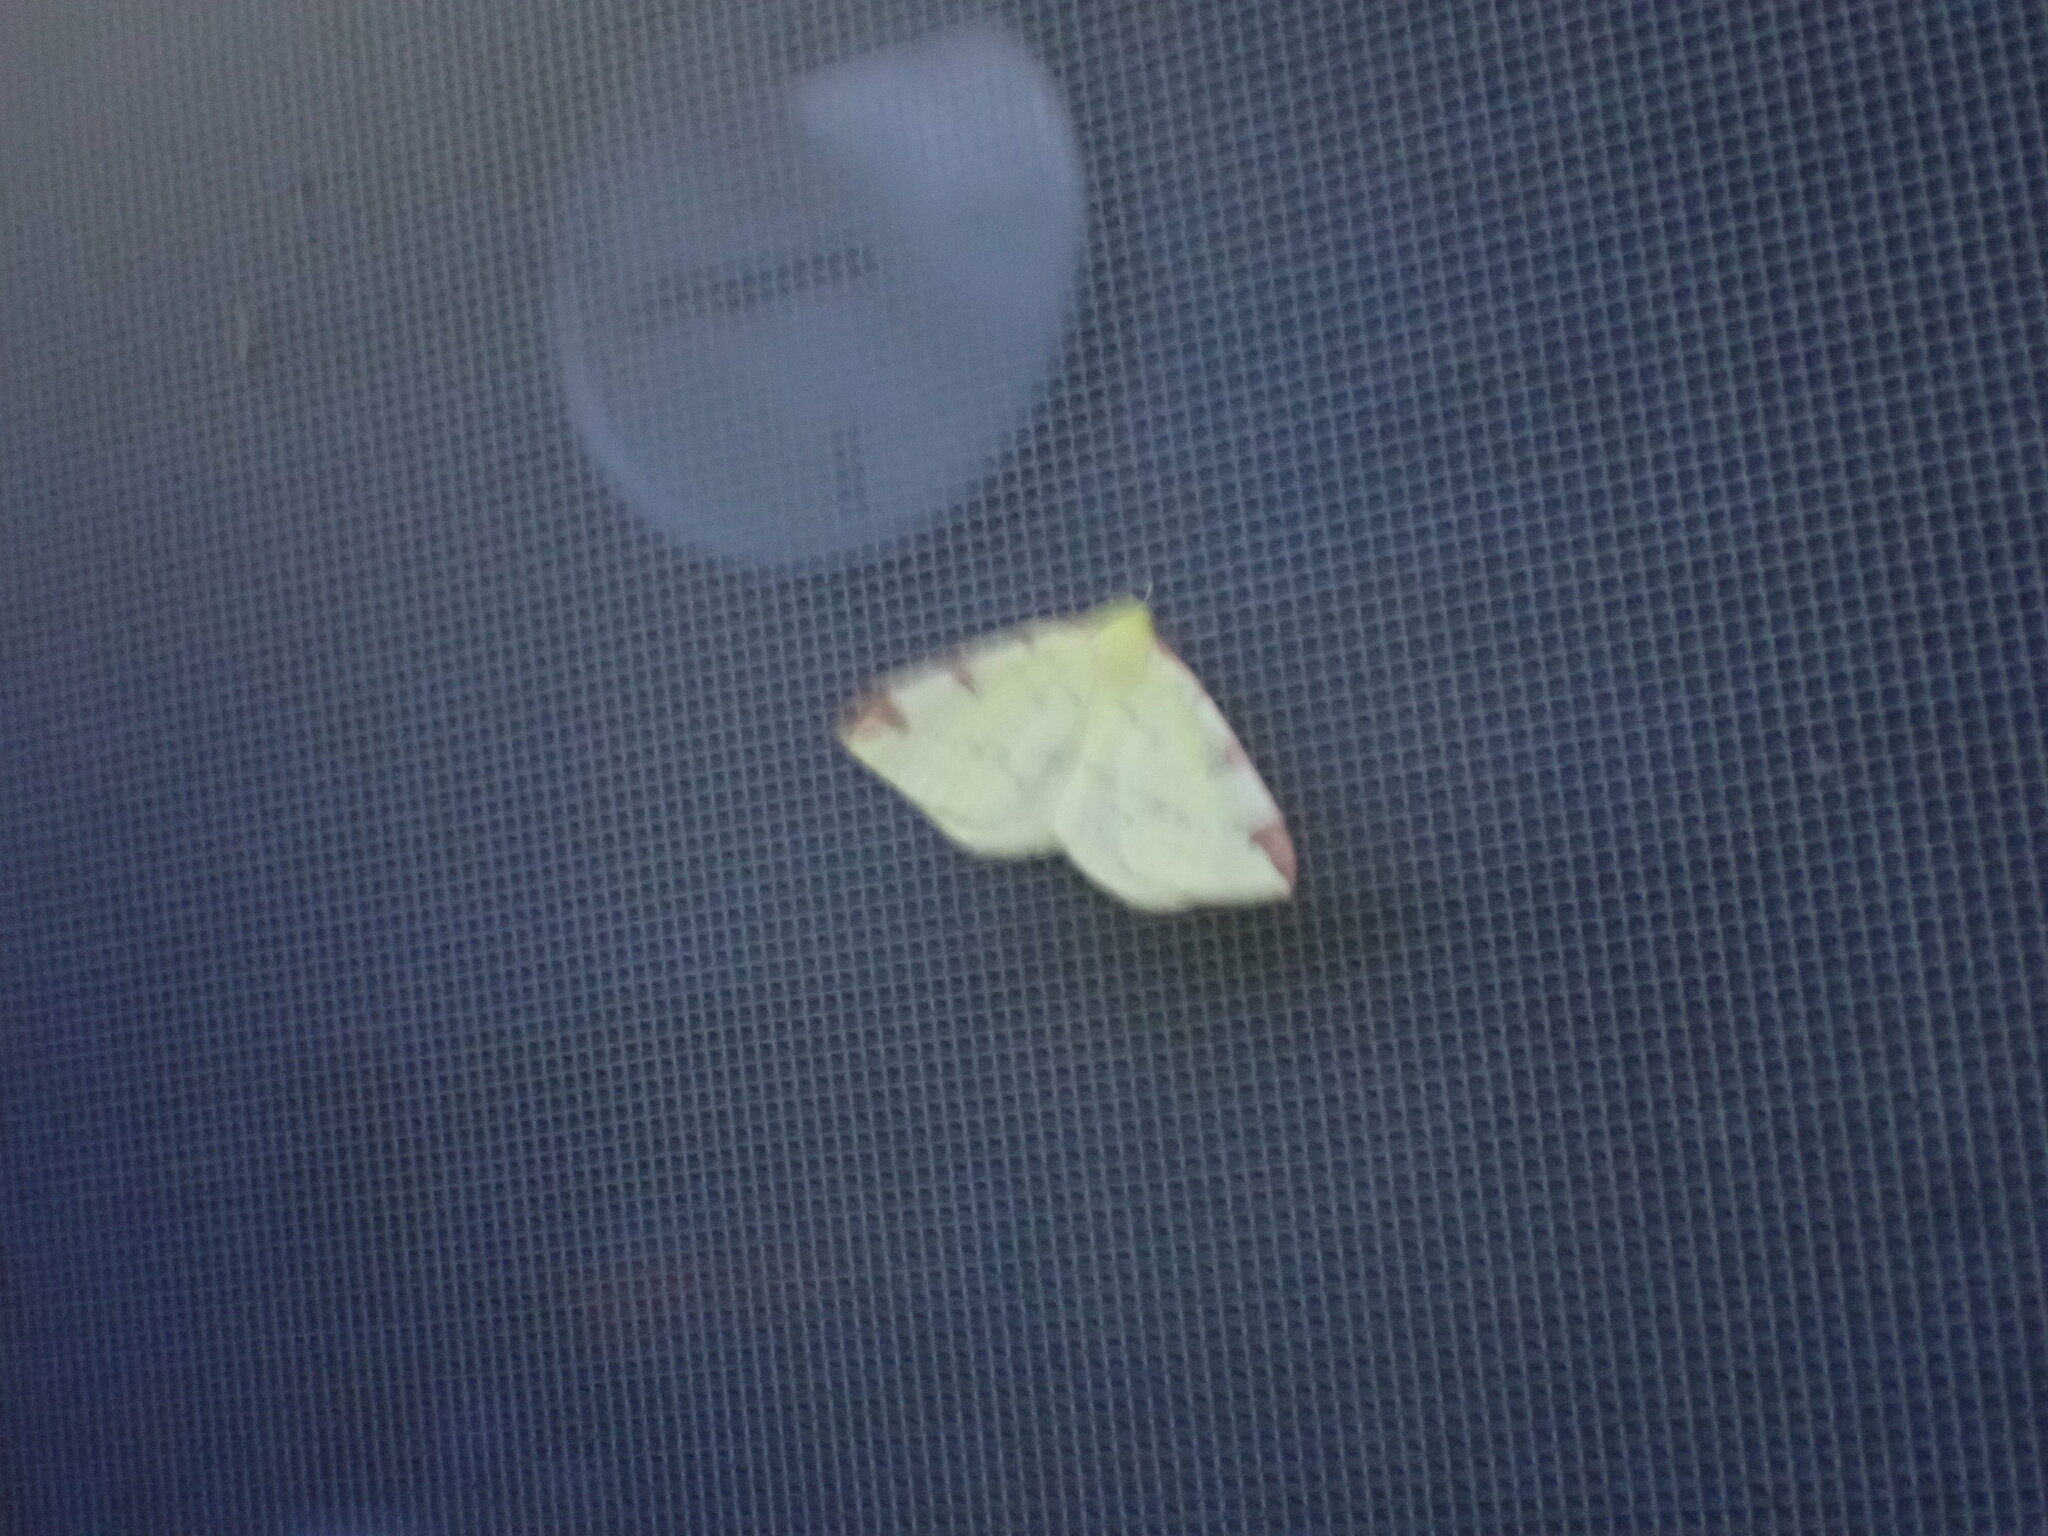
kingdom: Animalia
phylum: Arthropoda
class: Insecta
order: Lepidoptera
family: Geometridae
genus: Opisthograptis
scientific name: Opisthograptis luteolata
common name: Brimstone moth
